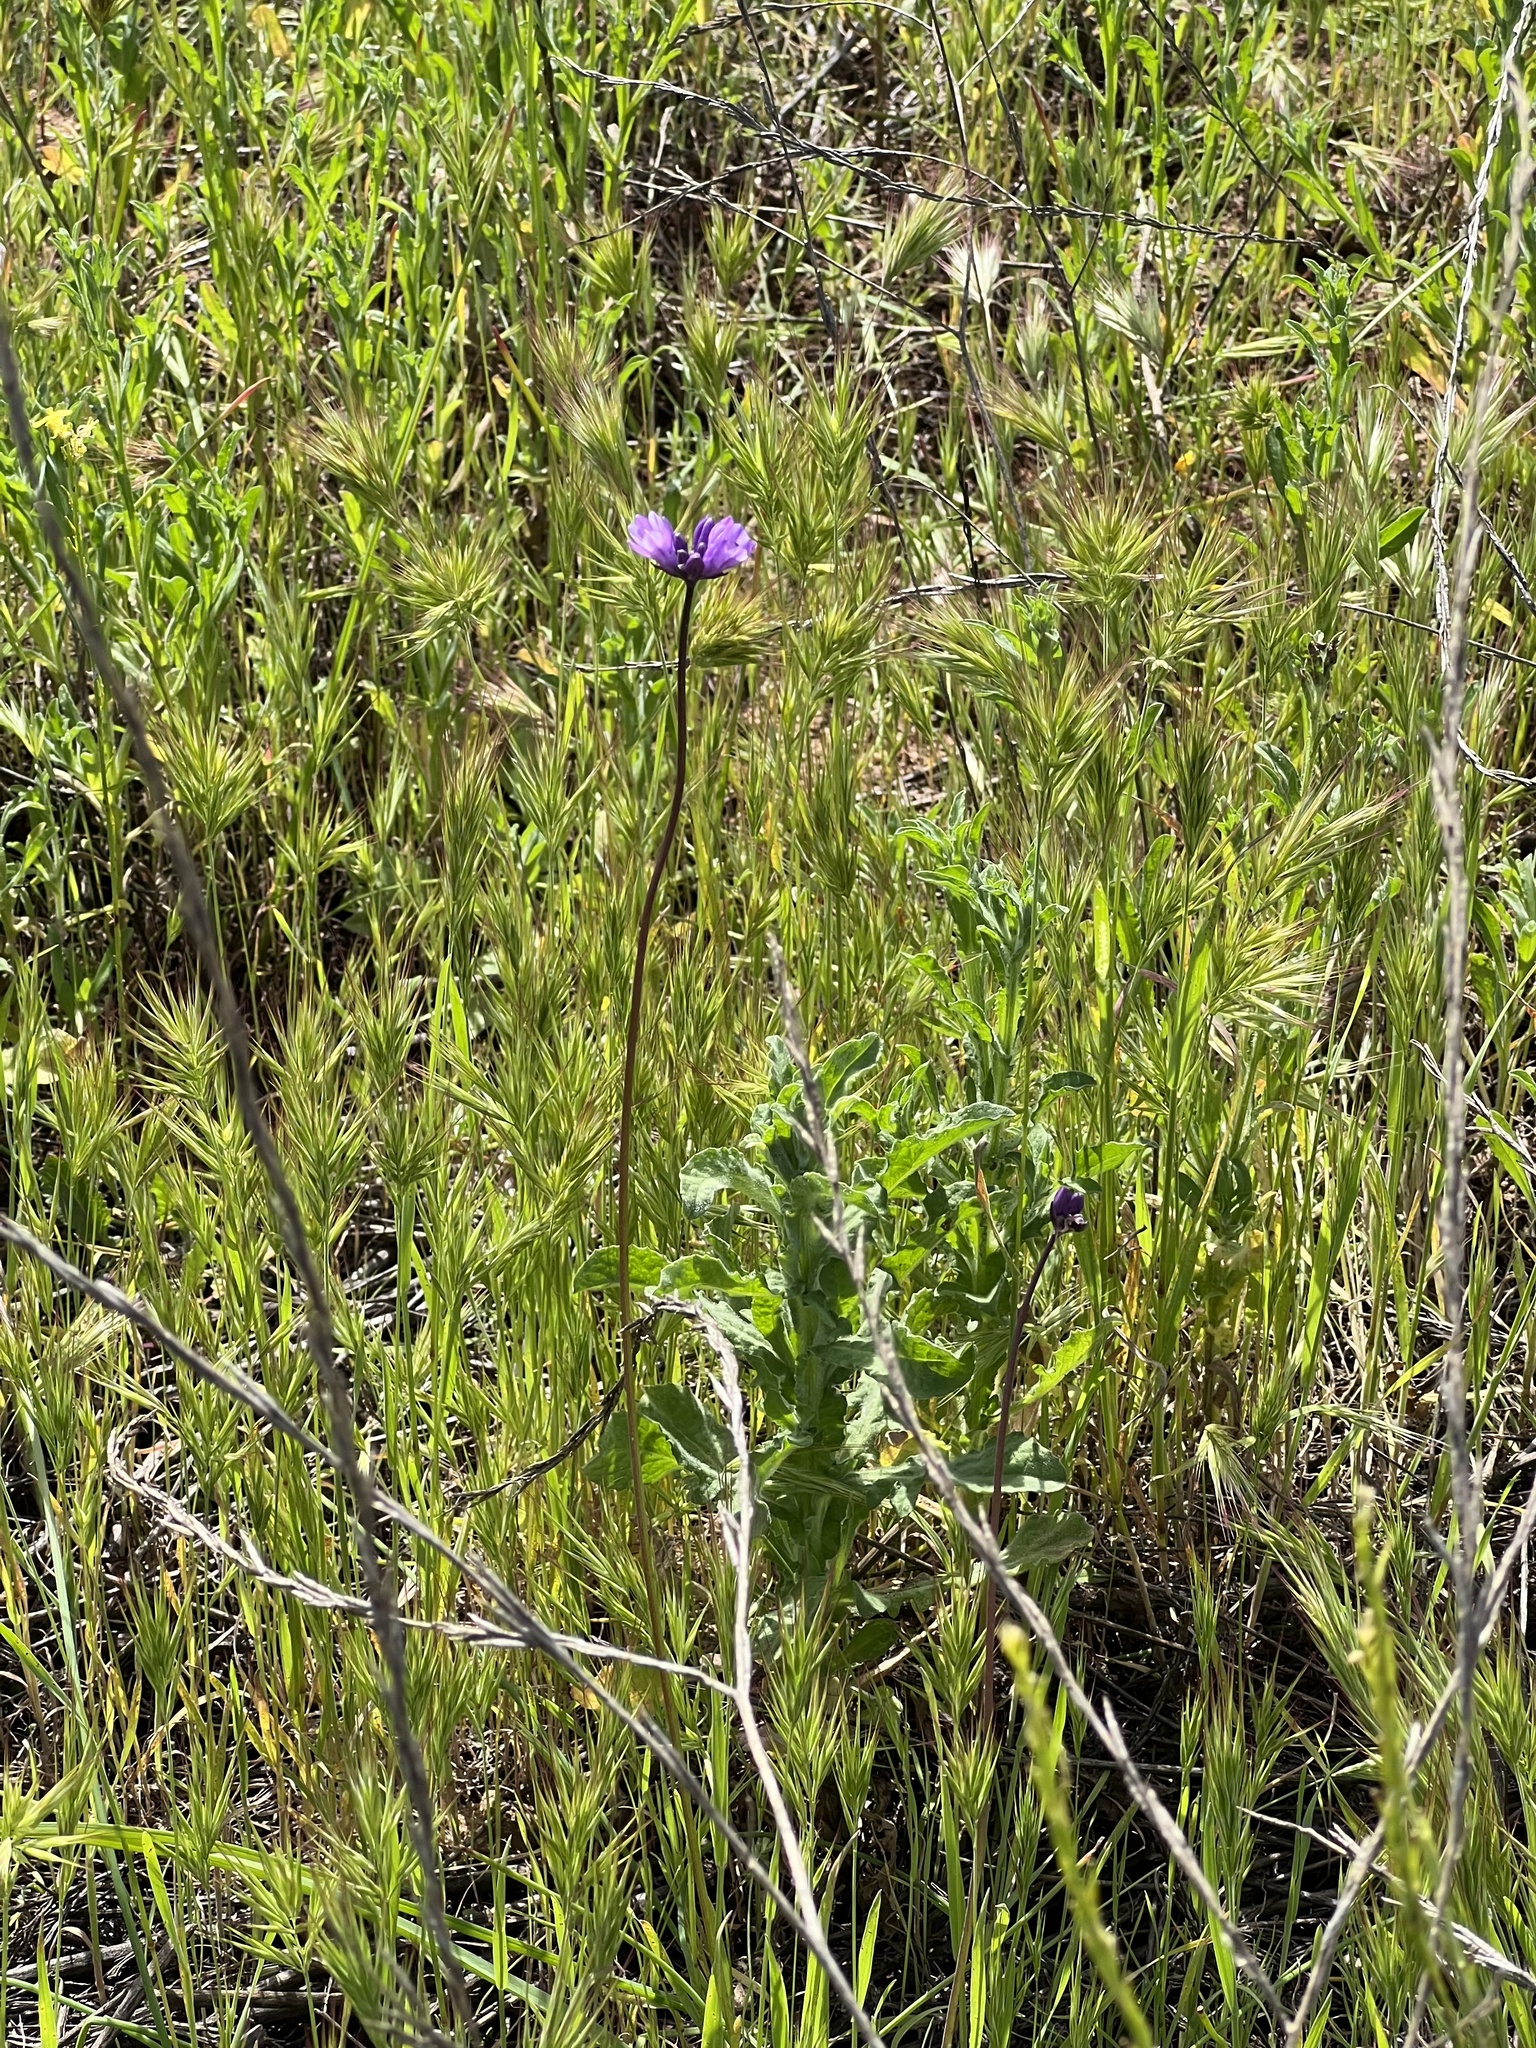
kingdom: Plantae
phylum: Tracheophyta
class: Liliopsida
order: Asparagales
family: Asparagaceae
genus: Dipterostemon
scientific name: Dipterostemon capitatus
